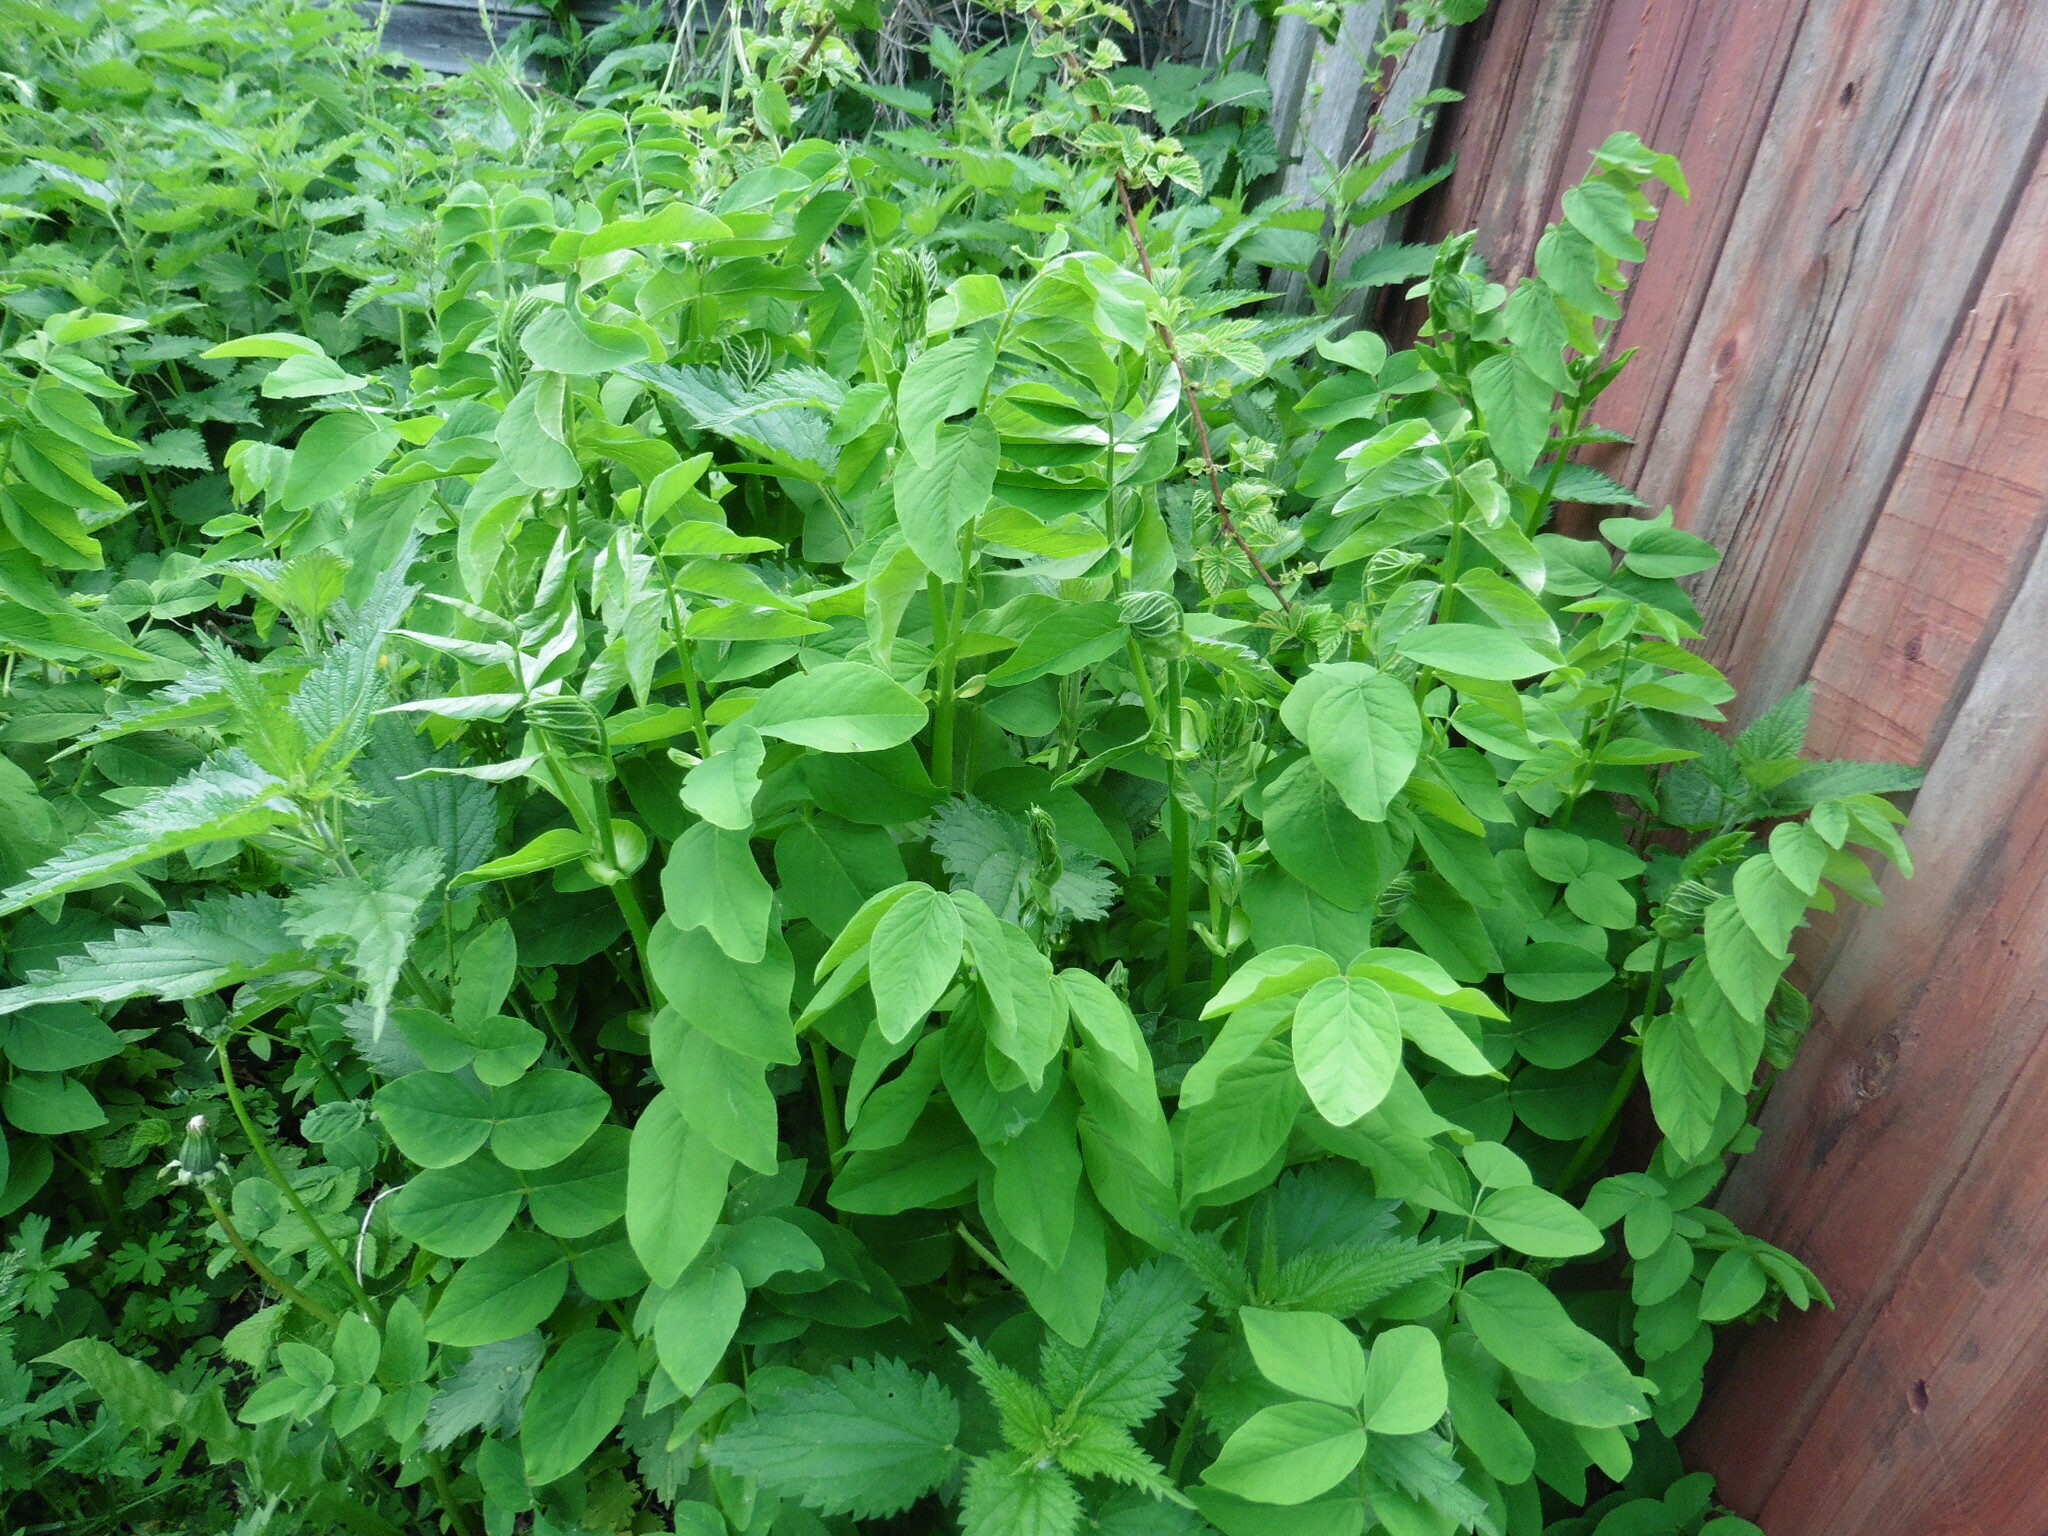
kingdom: Plantae
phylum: Tracheophyta
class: Magnoliopsida
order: Fabales
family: Fabaceae
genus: Galega
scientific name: Galega orientalis
